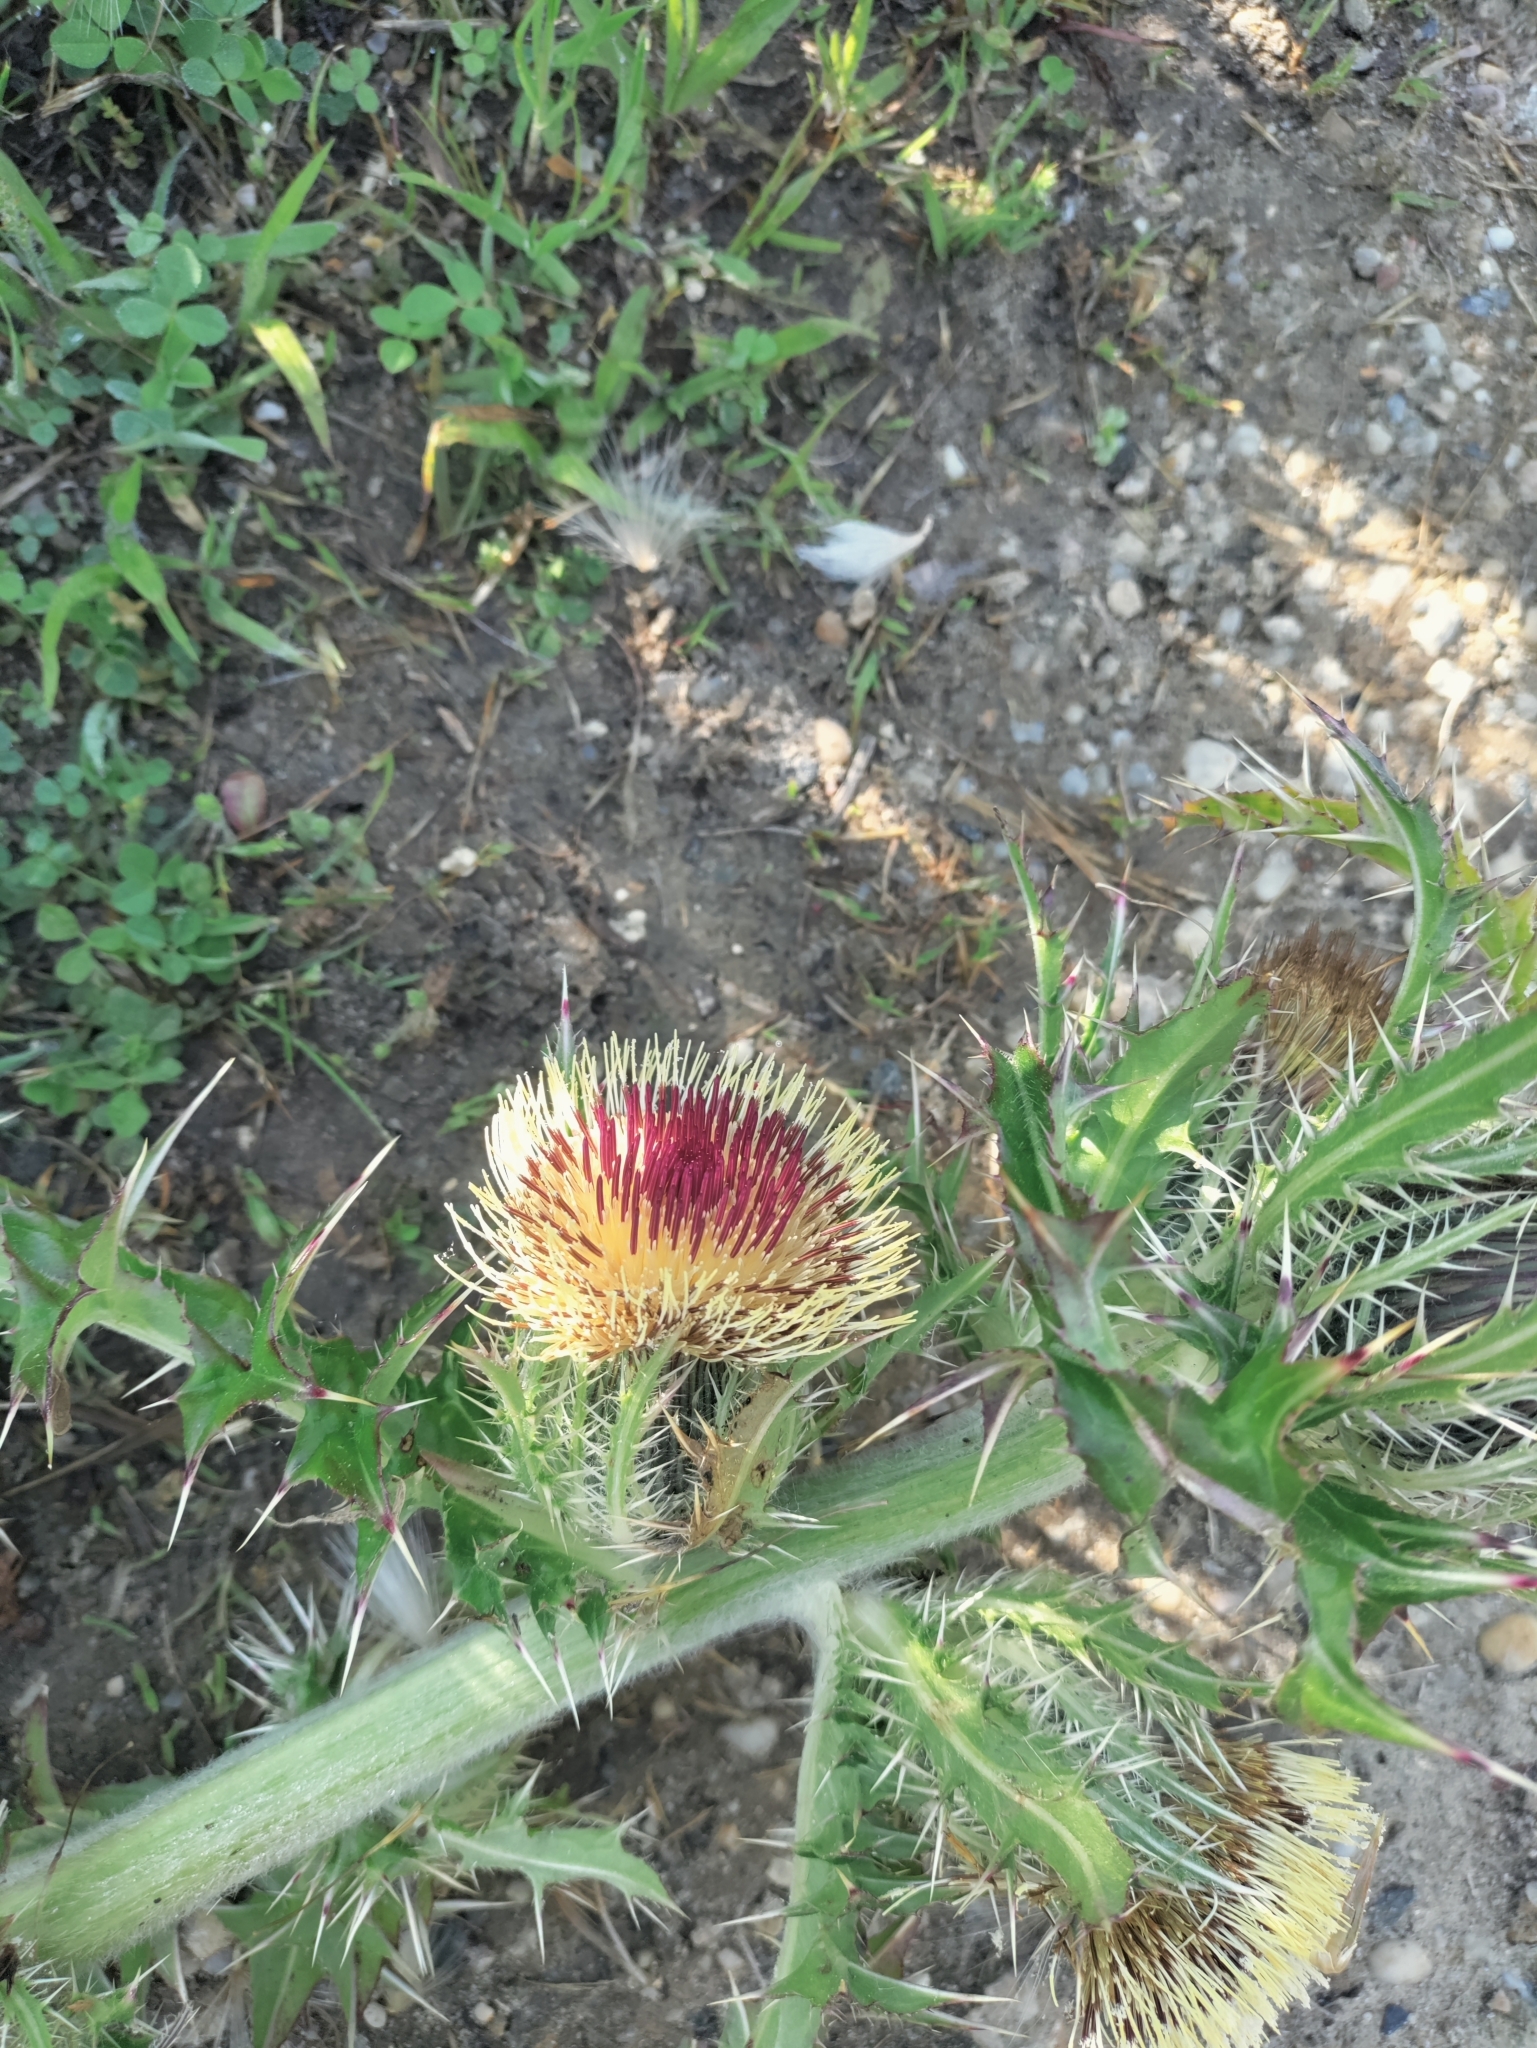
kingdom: Plantae
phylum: Tracheophyta
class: Magnoliopsida
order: Asterales
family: Asteraceae
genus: Cirsium
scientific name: Cirsium horridulum
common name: Bristly thistle
